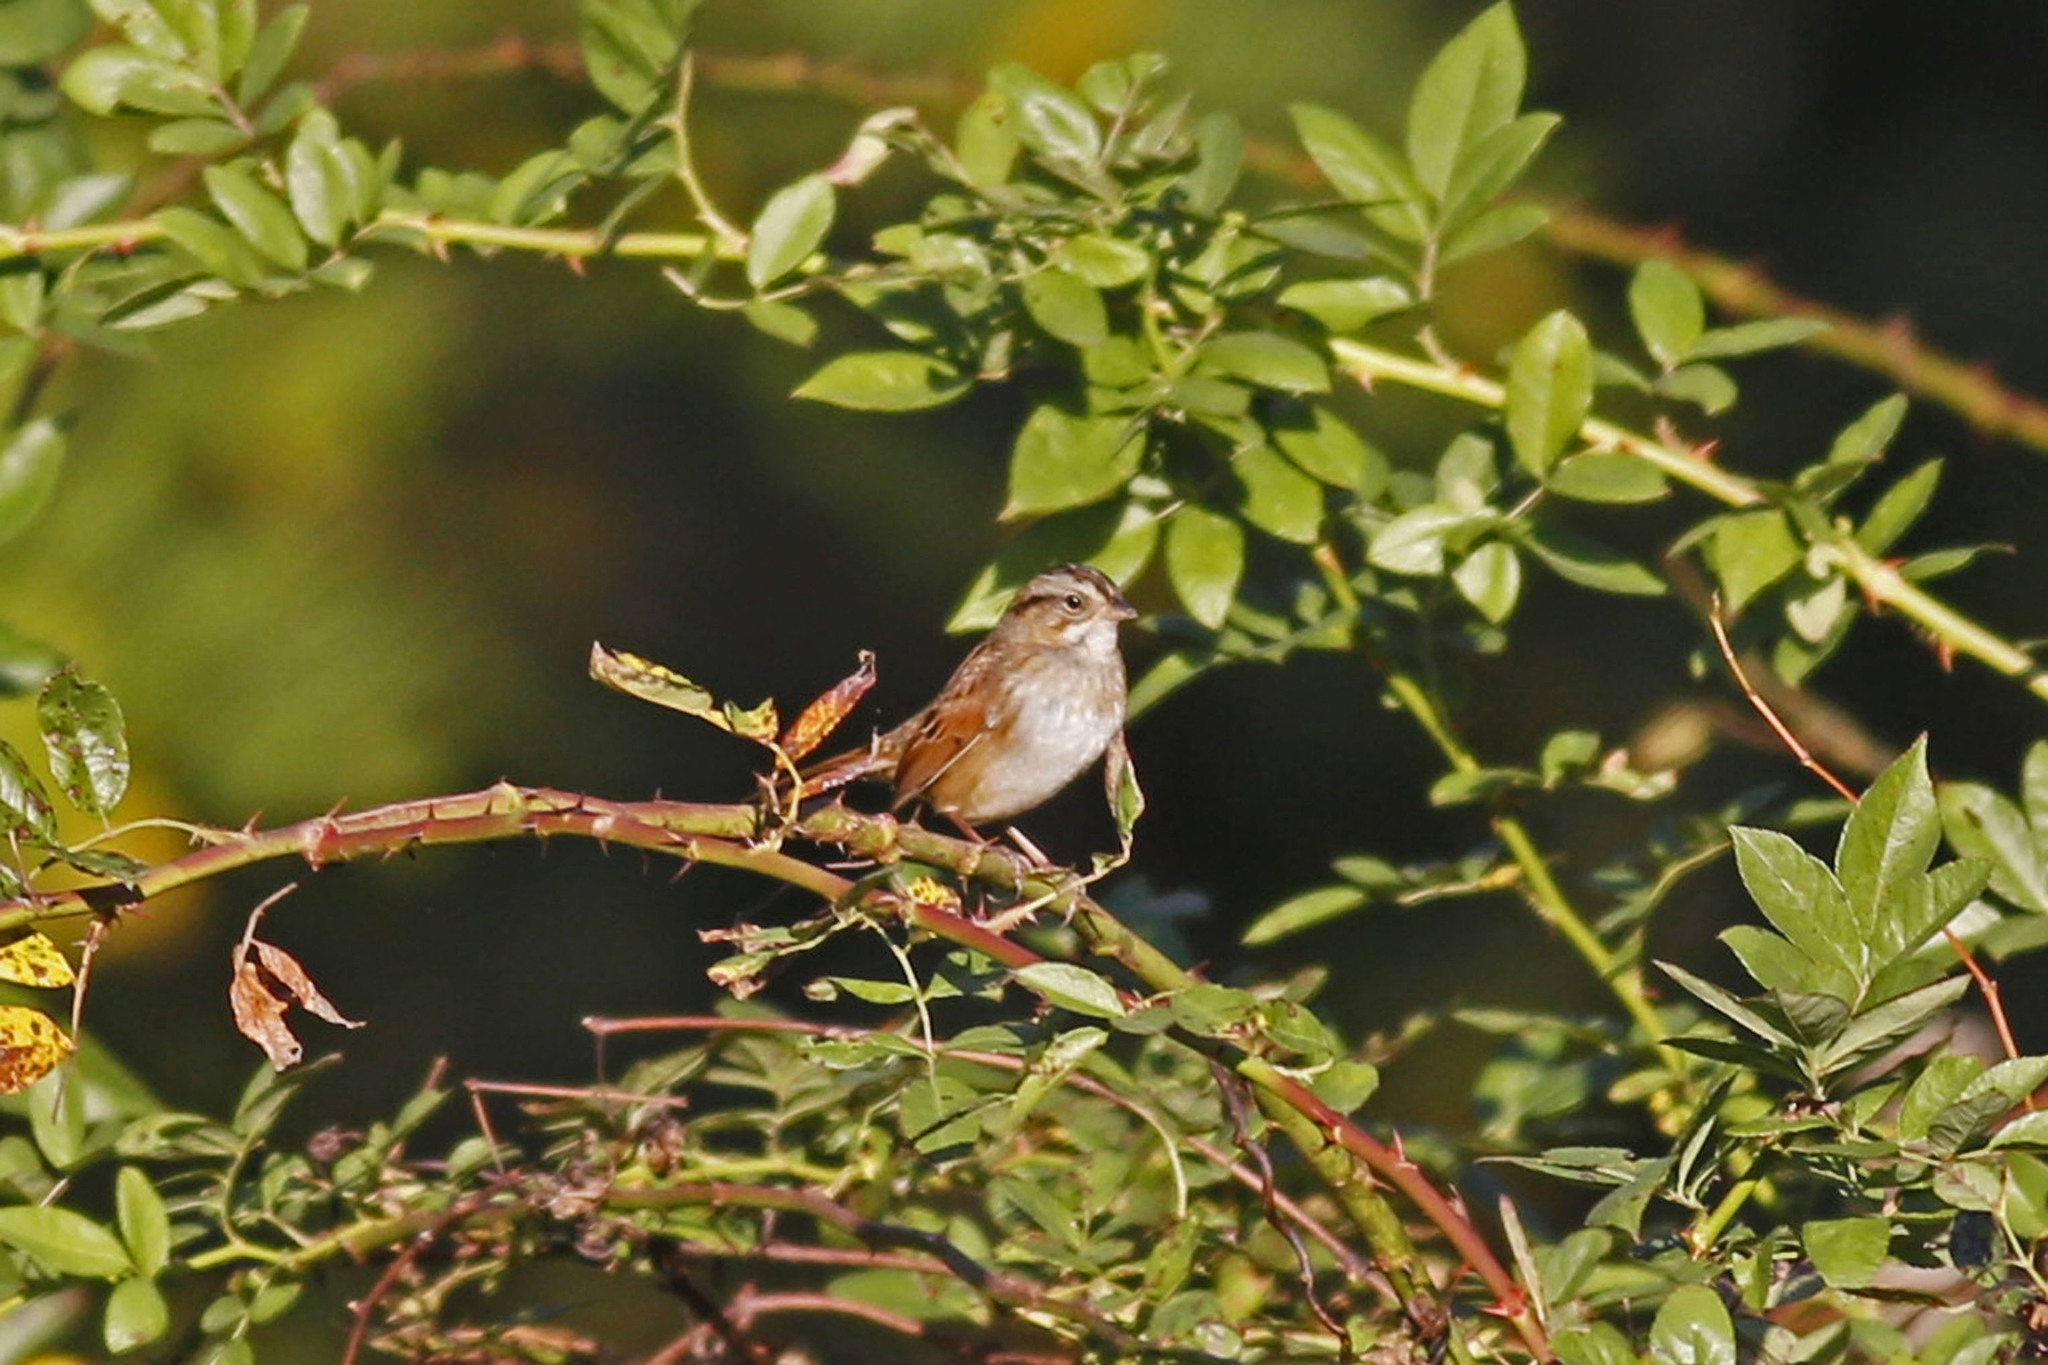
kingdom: Animalia
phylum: Chordata
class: Aves
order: Passeriformes
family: Passerellidae
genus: Melospiza
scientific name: Melospiza georgiana
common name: Swamp sparrow
